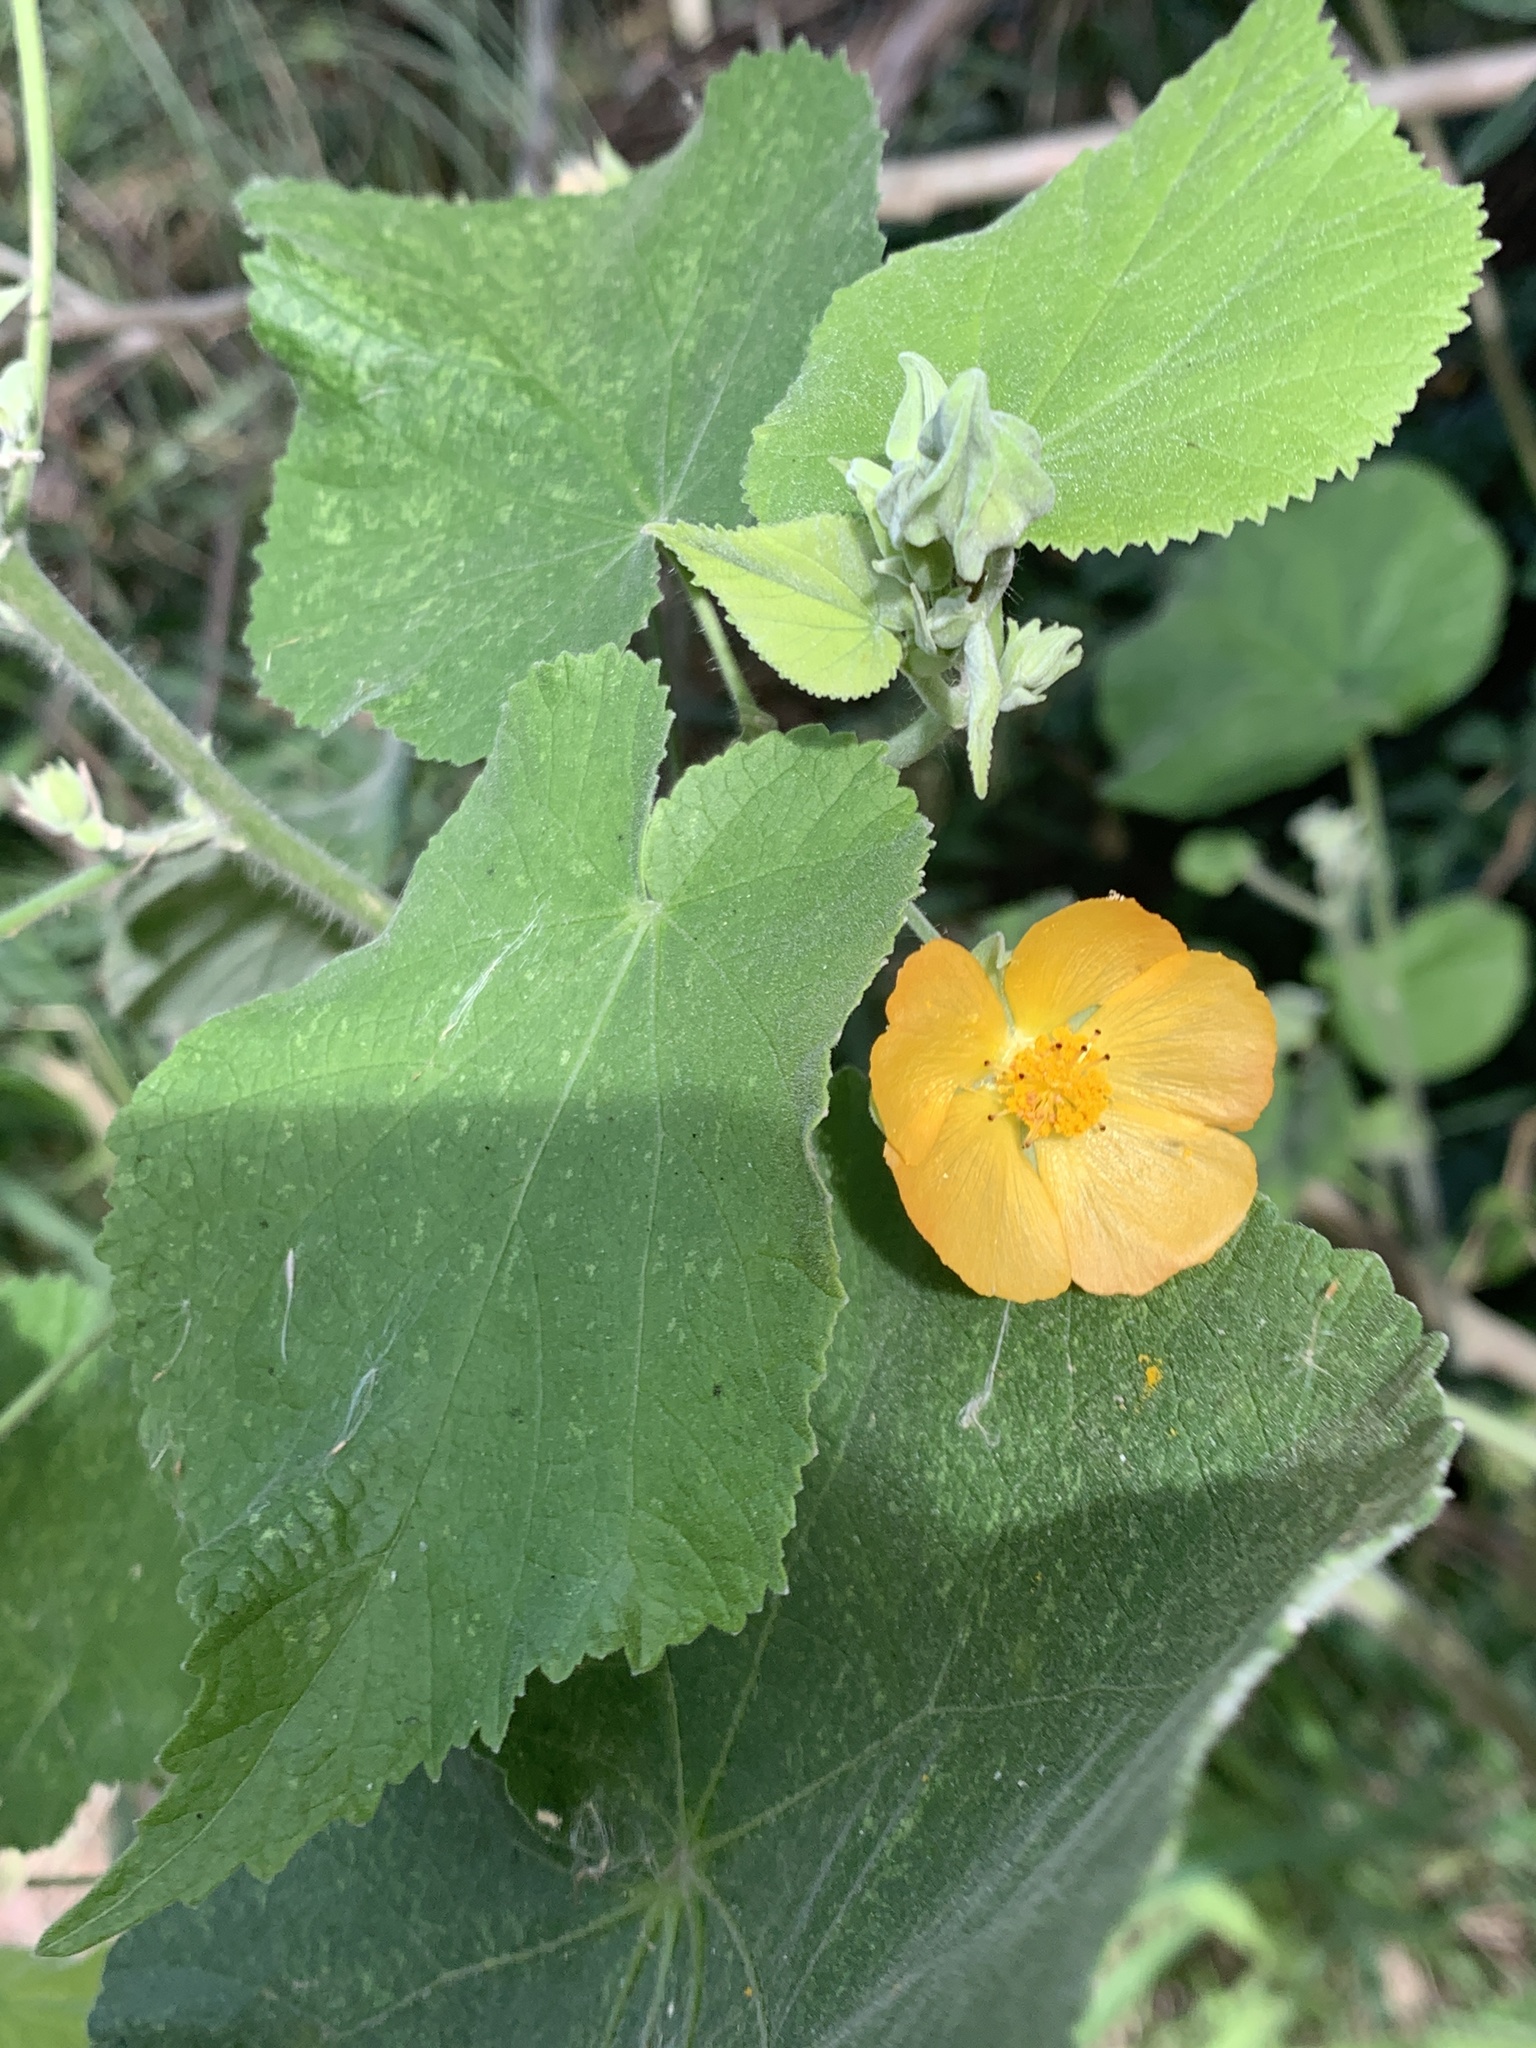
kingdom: Plantae
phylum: Tracheophyta
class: Magnoliopsida
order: Malvales
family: Malvaceae
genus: Abutilon
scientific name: Abutilon grandifolium
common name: Hairy abutilon
